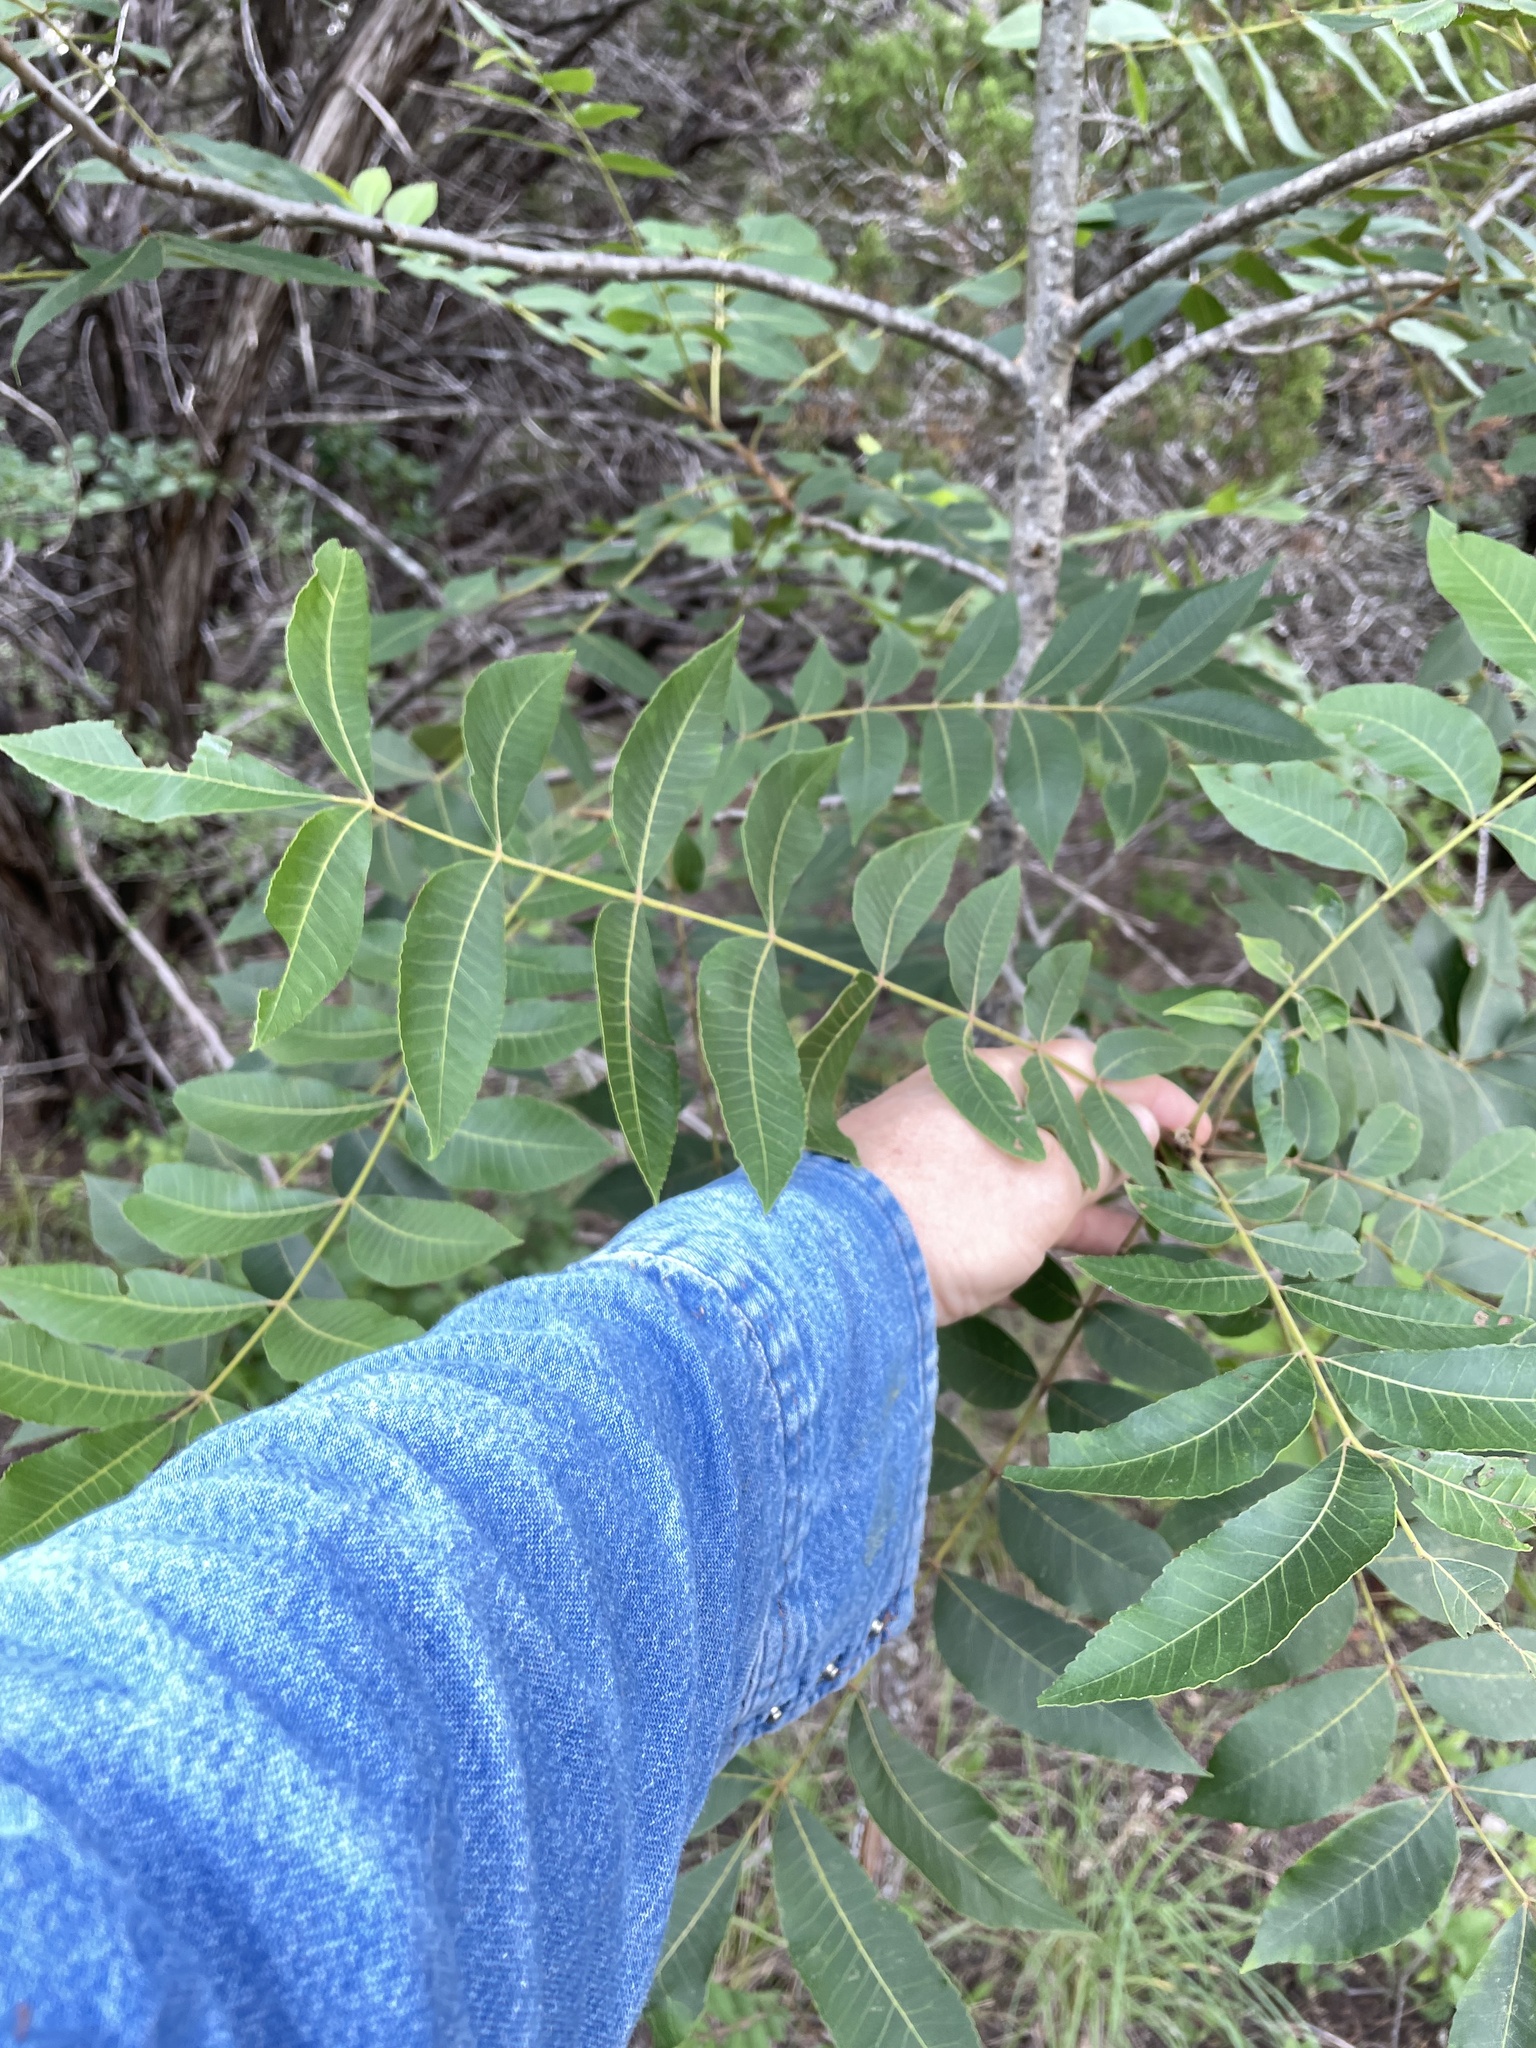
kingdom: Plantae
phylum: Tracheophyta
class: Magnoliopsida
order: Fagales
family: Juglandaceae
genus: Carya
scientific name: Carya illinoinensis
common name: Pecan
